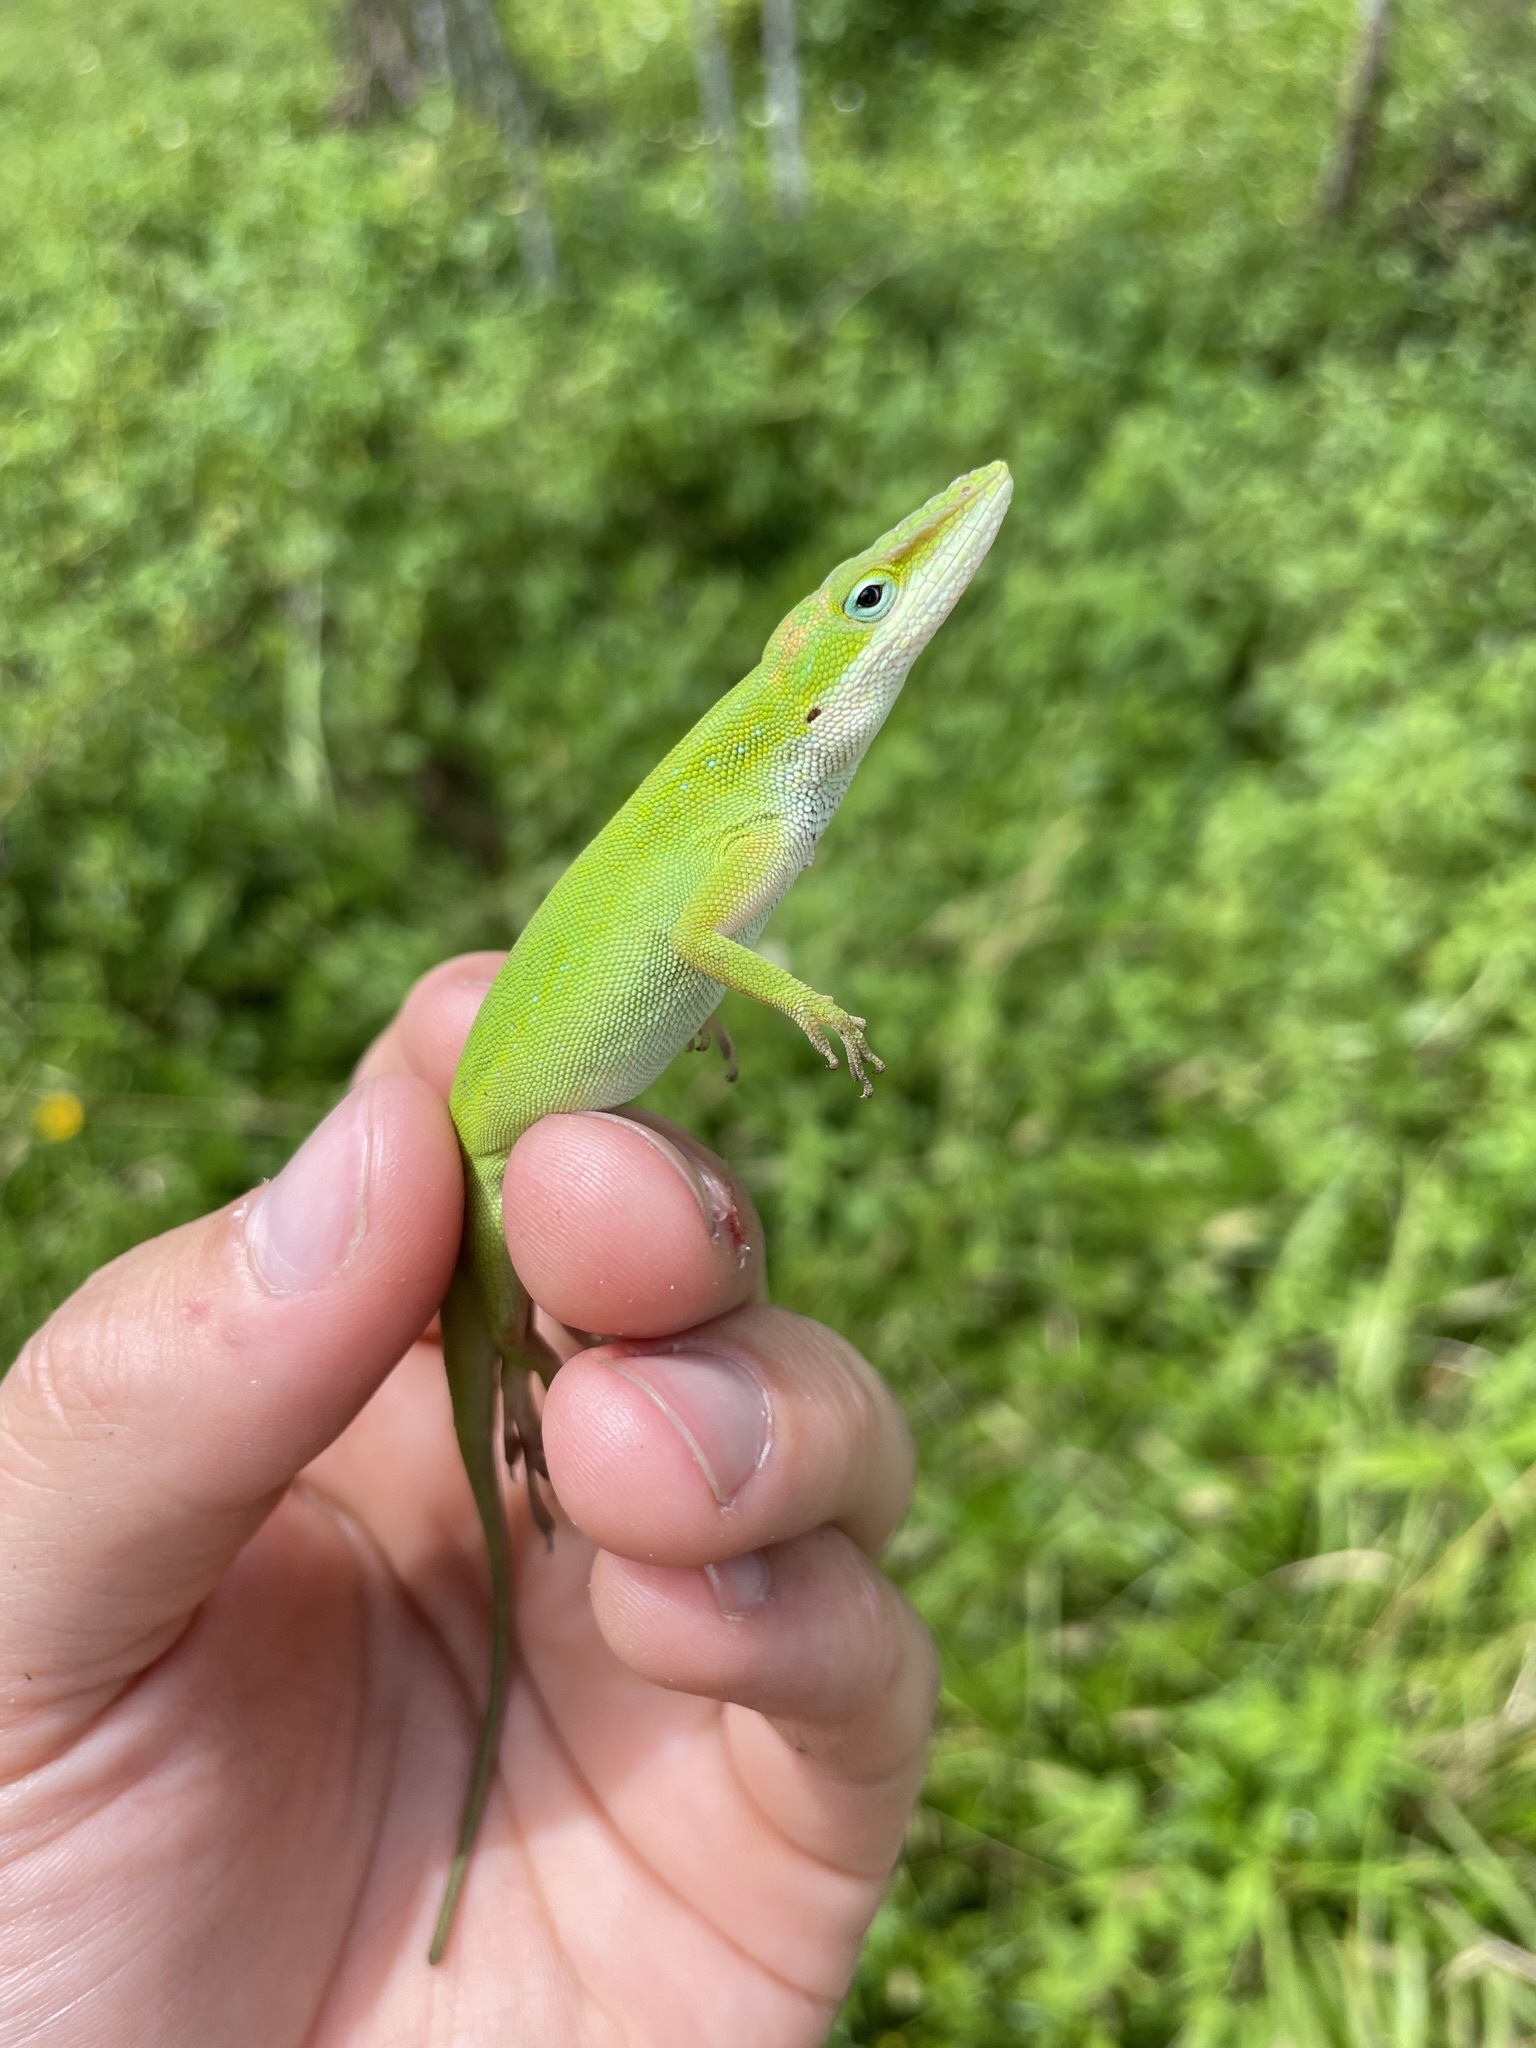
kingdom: Animalia
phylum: Chordata
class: Squamata
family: Dactyloidae
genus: Anolis
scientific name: Anolis carolinensis
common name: Green anole
